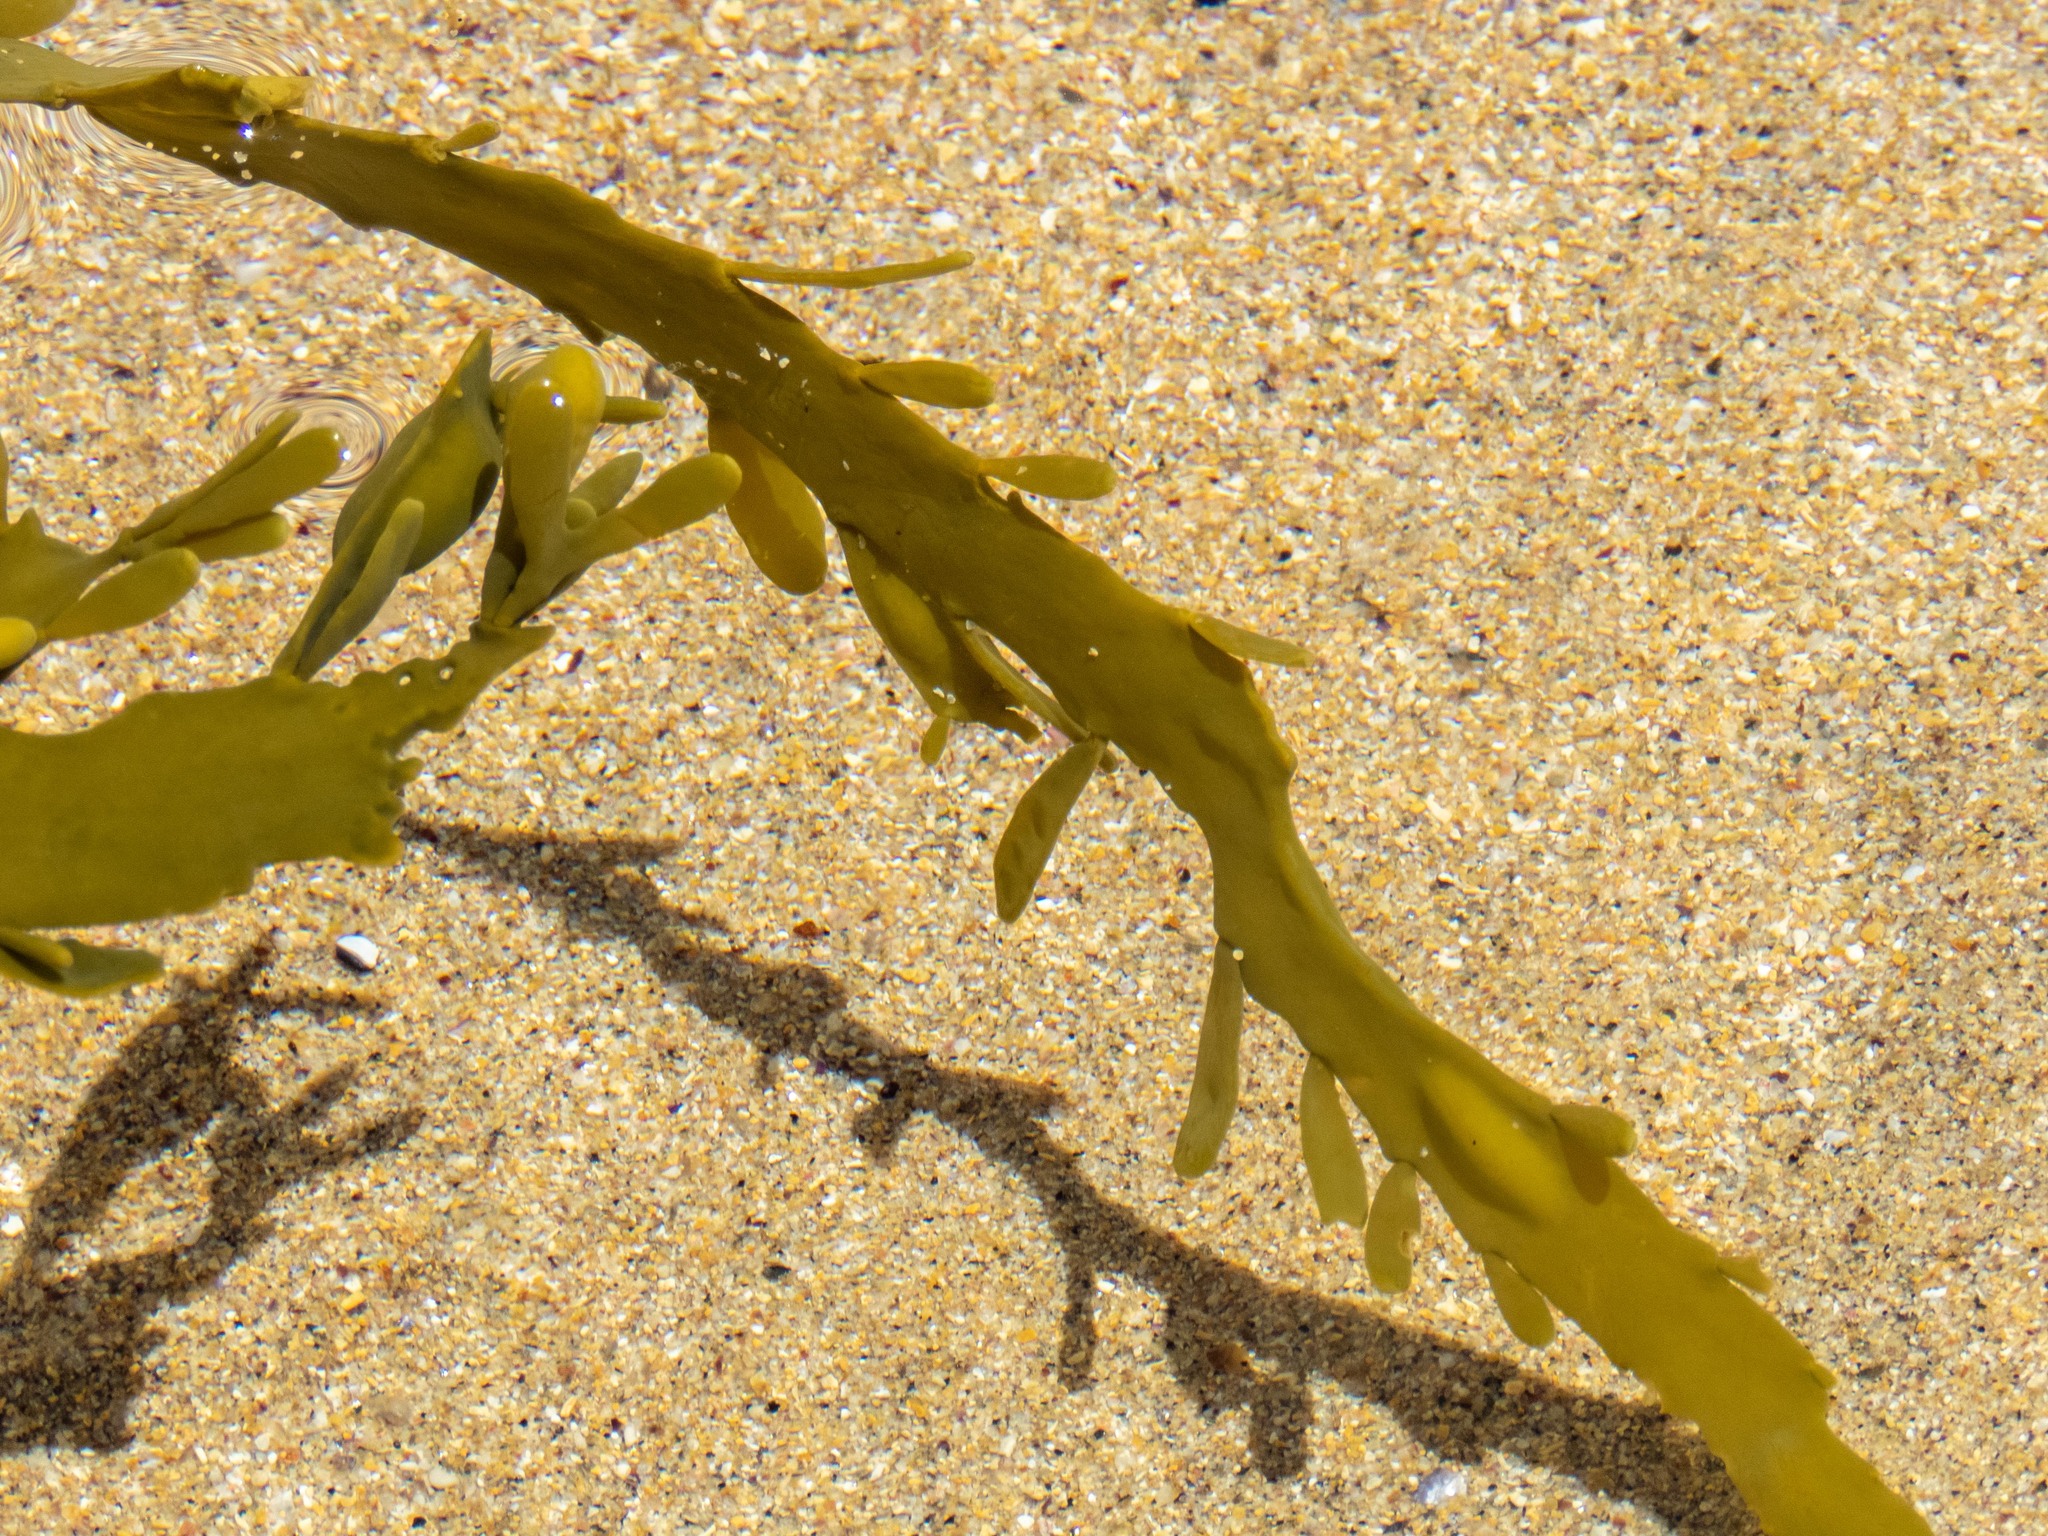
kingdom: Chromista
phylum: Ochrophyta
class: Phaeophyceae
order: Fucales
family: Fucaceae
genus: Ascophyllum
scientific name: Ascophyllum nodosum
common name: Knotted wrack
